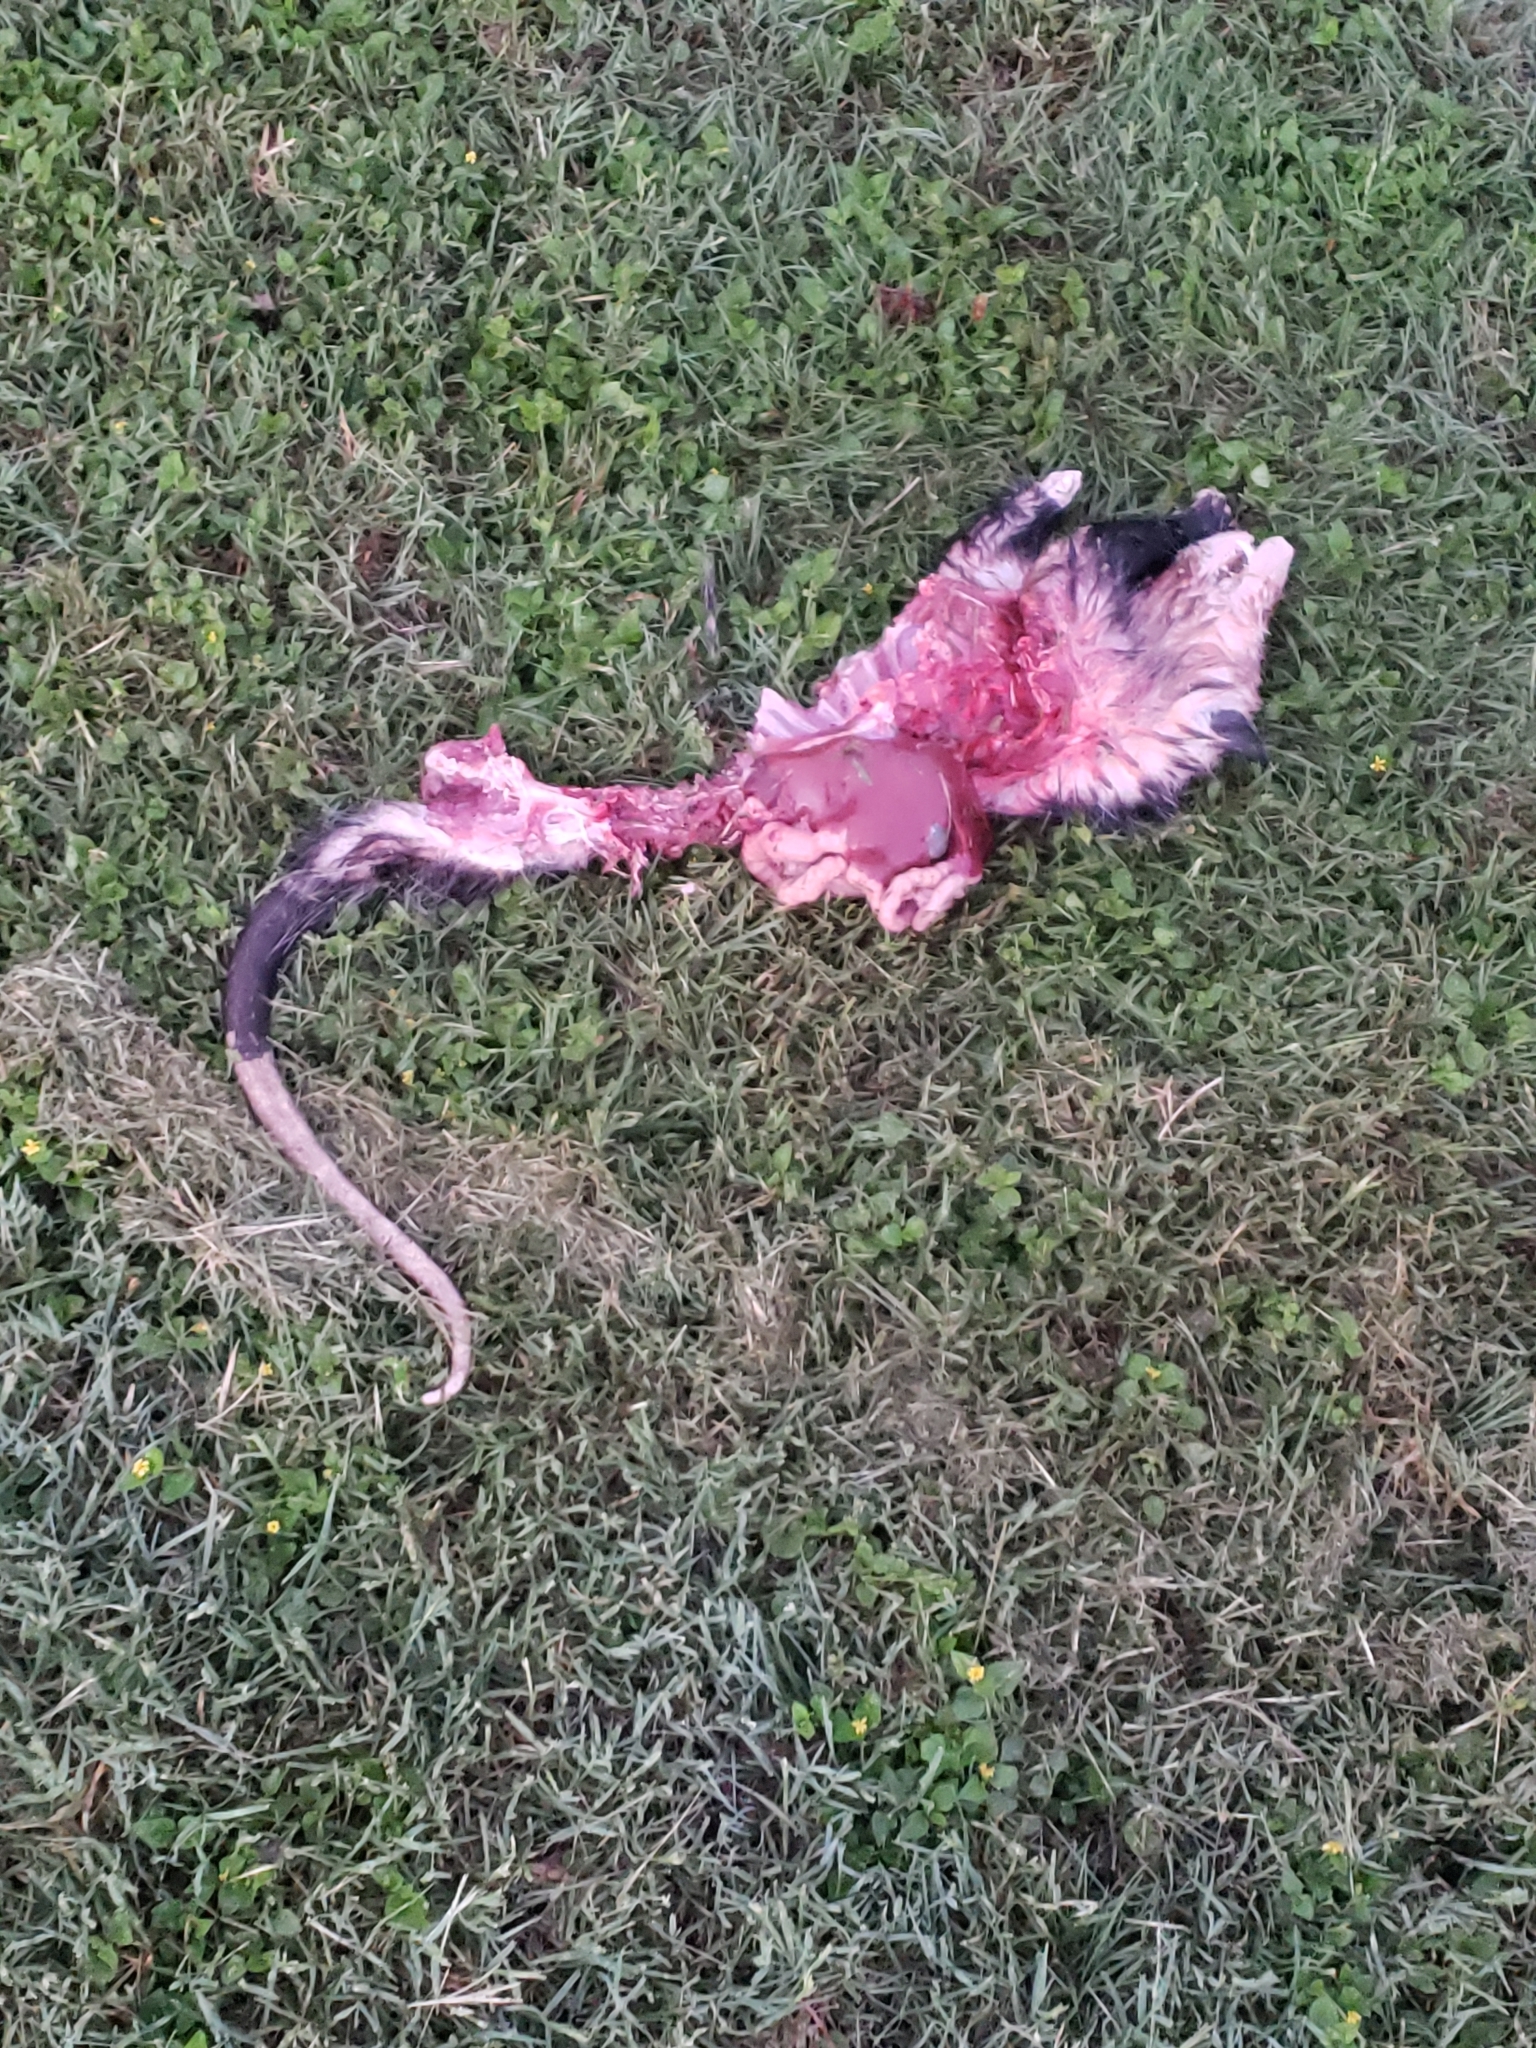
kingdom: Animalia
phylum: Chordata
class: Mammalia
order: Didelphimorphia
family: Didelphidae
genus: Didelphis
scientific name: Didelphis virginiana
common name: Virginia opossum
